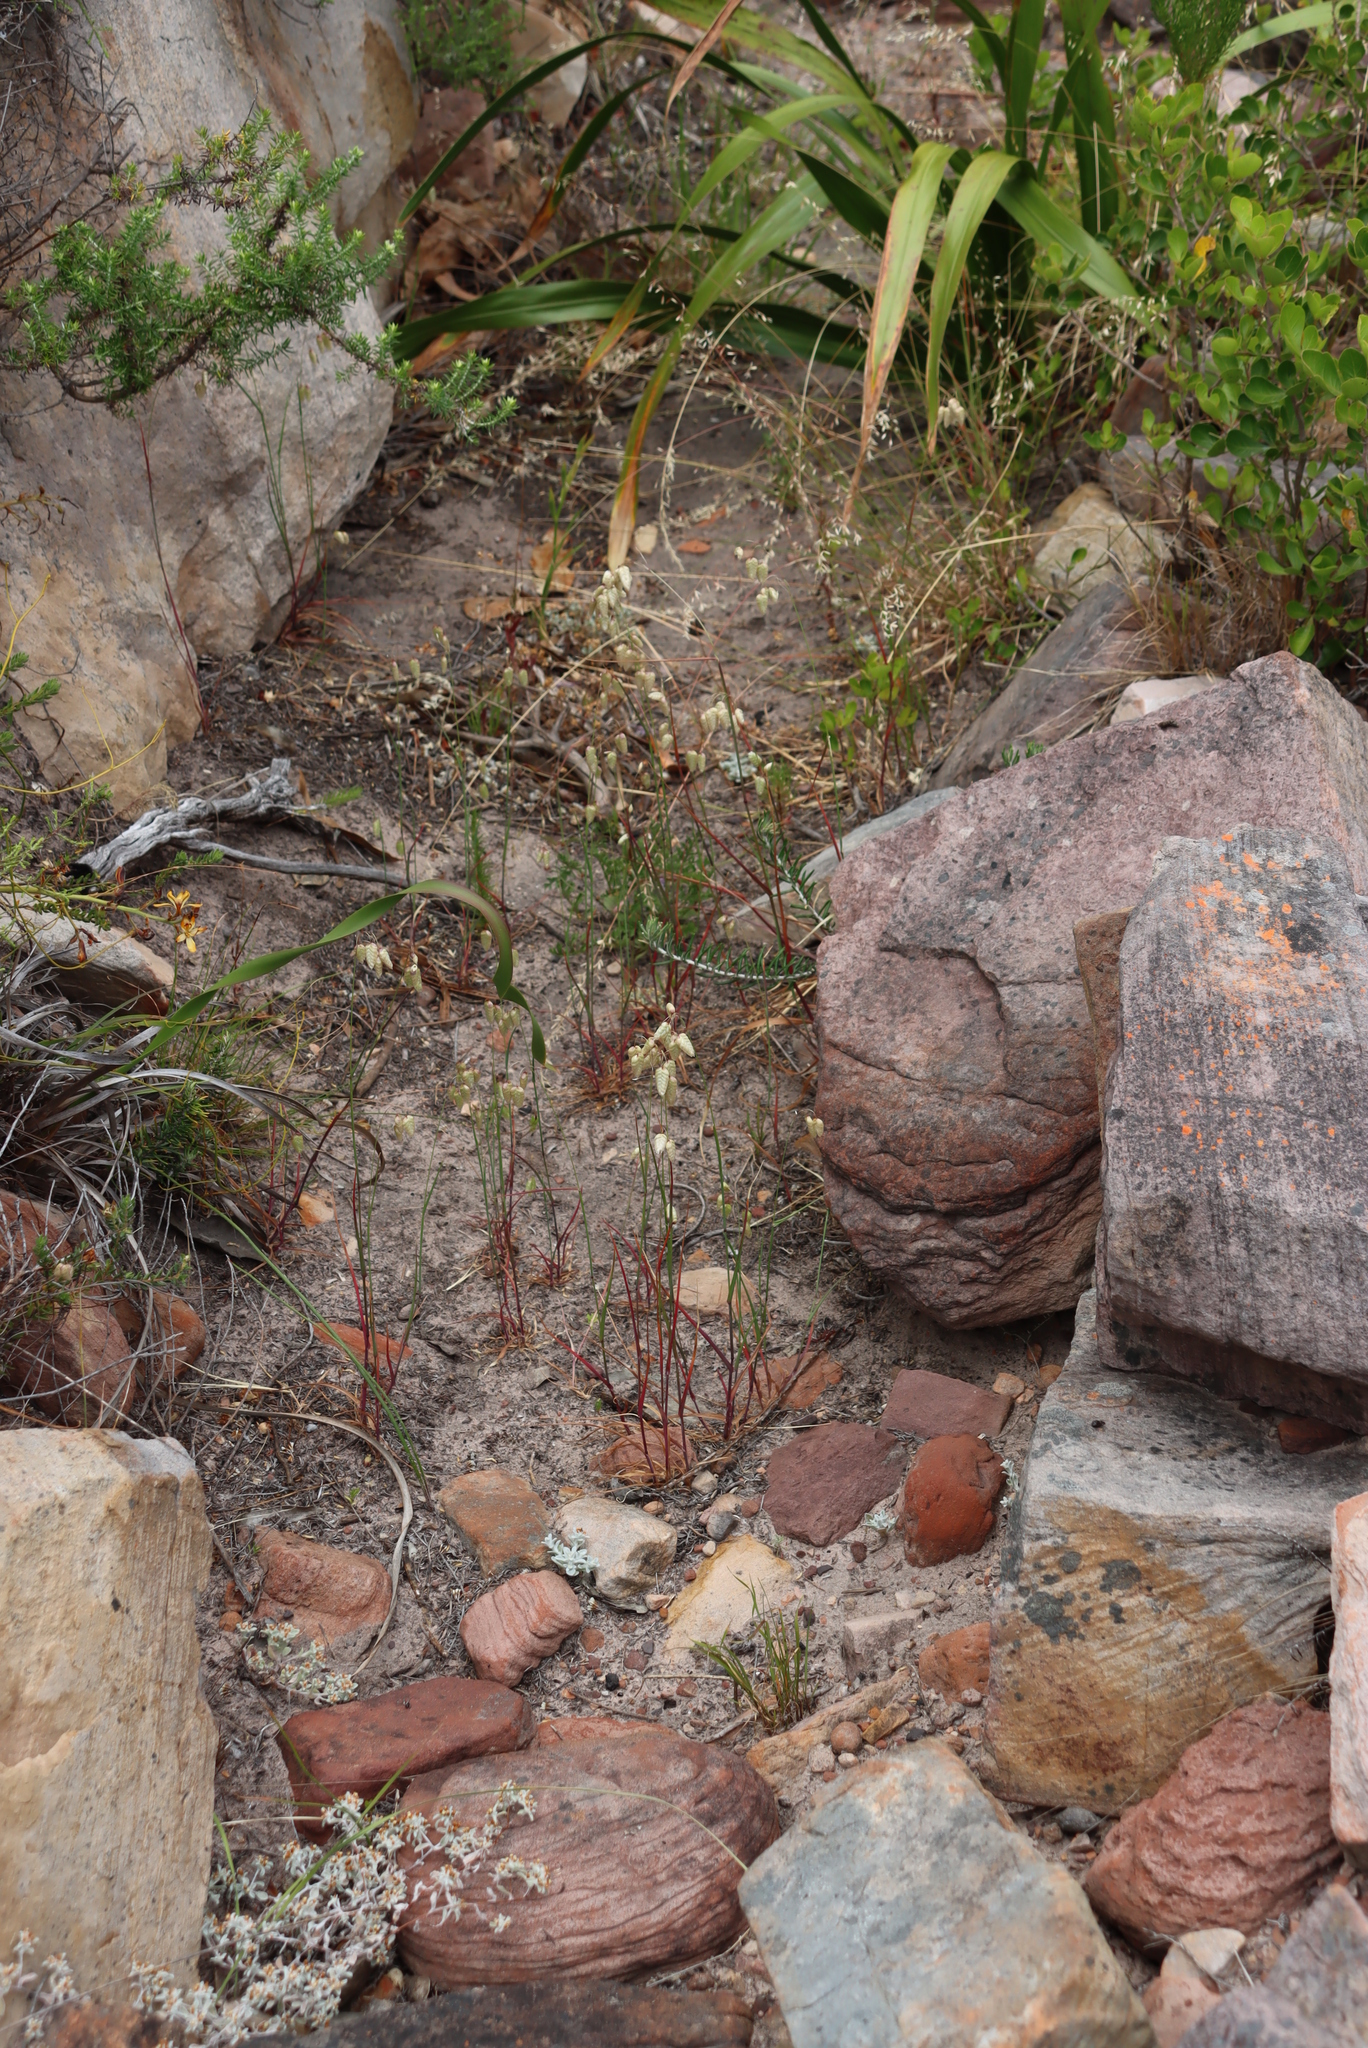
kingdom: Plantae
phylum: Tracheophyta
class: Liliopsida
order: Poales
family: Poaceae
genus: Briza
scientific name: Briza maxima
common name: Big quakinggrass
